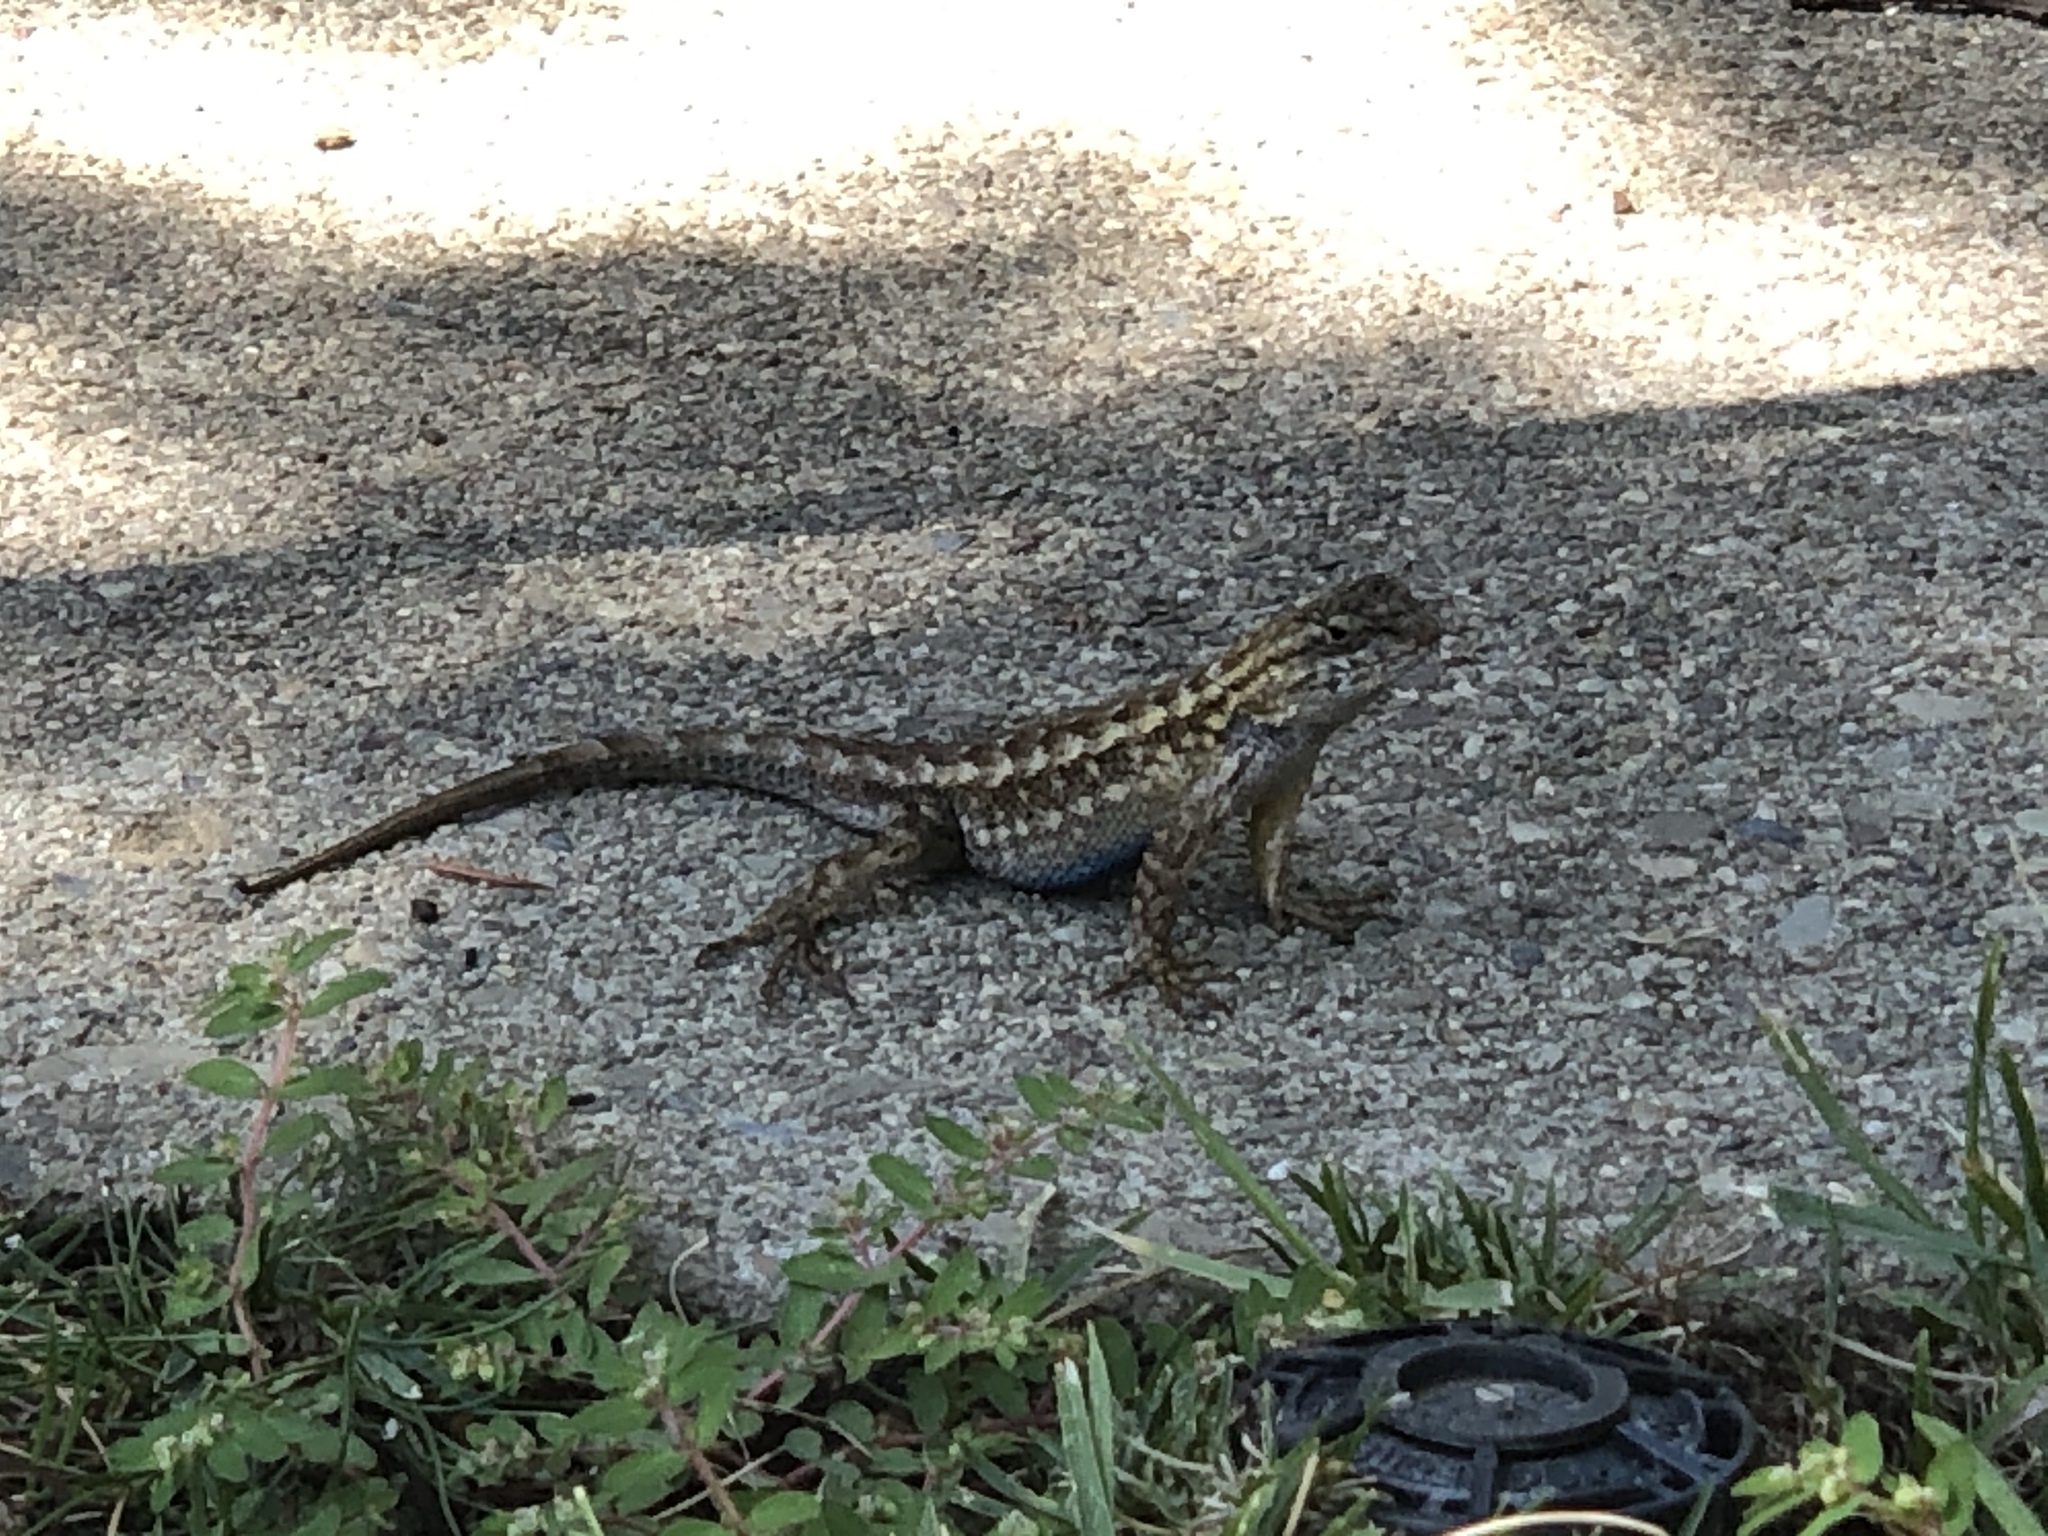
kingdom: Animalia
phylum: Chordata
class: Squamata
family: Phrynosomatidae
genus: Sceloporus
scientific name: Sceloporus occidentalis
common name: Western fence lizard
